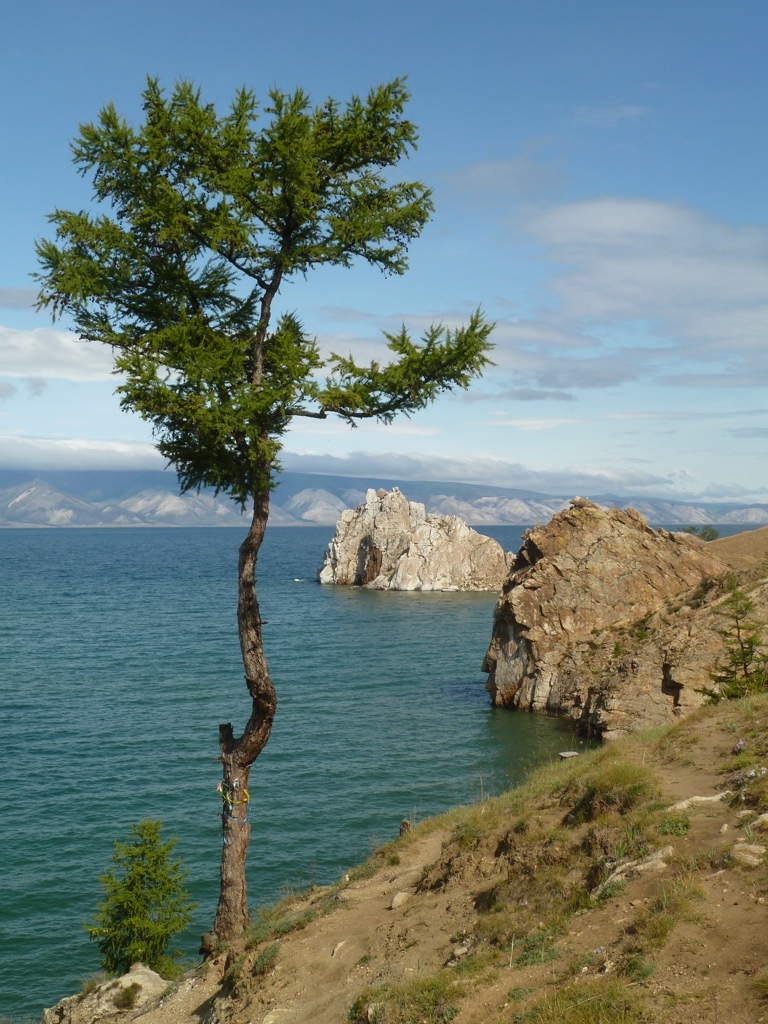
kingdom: Plantae
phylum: Tracheophyta
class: Pinopsida
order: Pinales
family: Pinaceae
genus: Larix
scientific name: Larix sibirica
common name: Siberian larch
